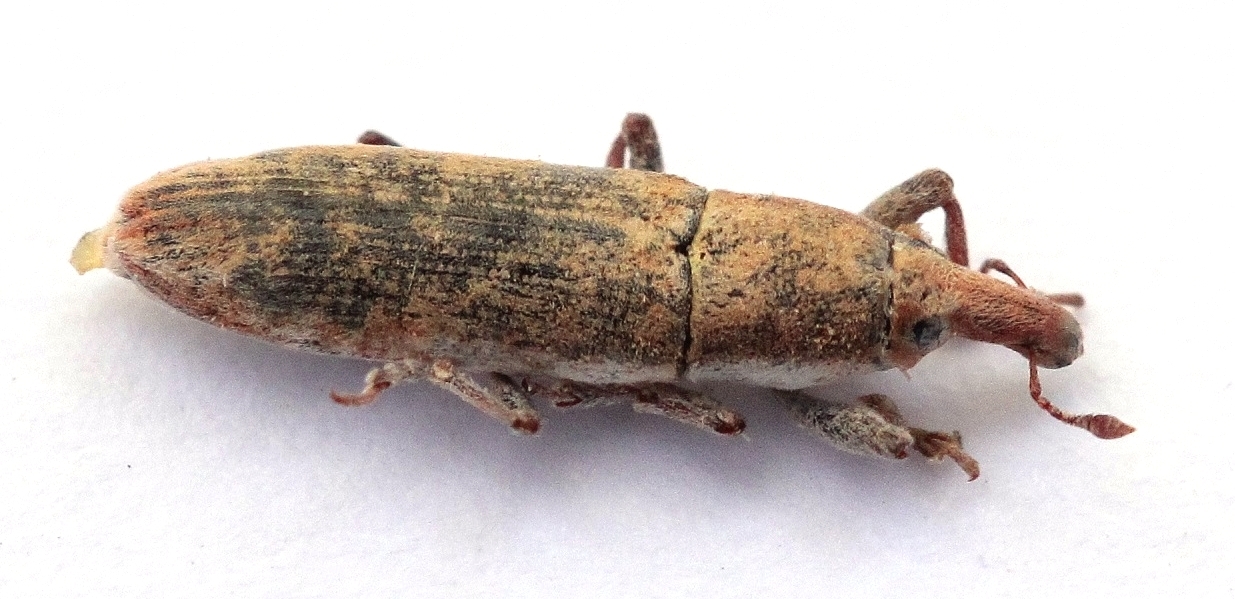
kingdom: Animalia
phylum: Arthropoda
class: Insecta
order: Coleoptera
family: Curculionidae
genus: Lixus
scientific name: Lixus incanescens
